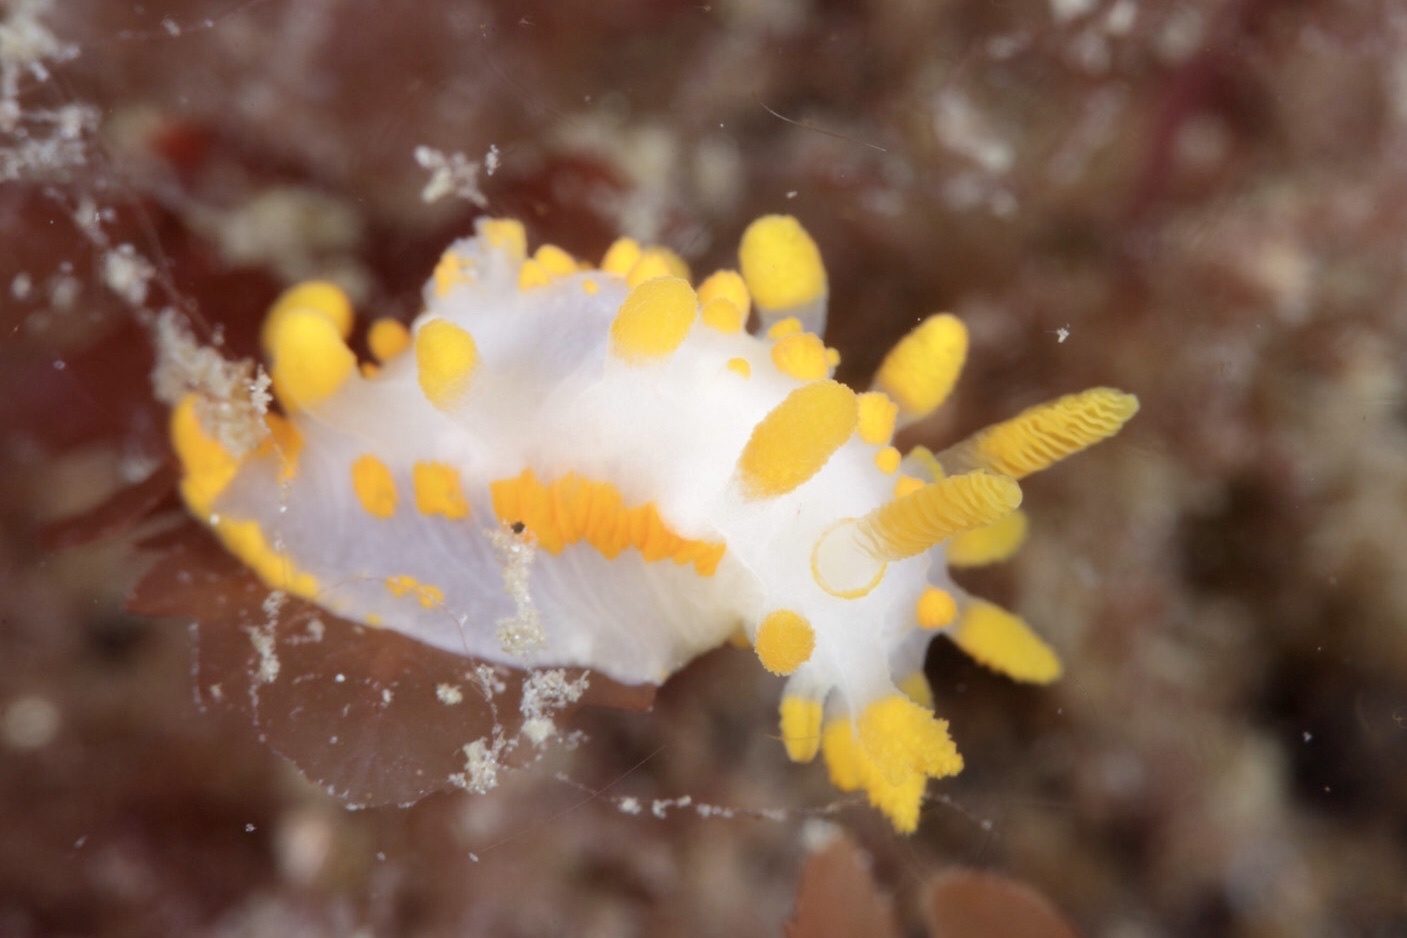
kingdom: Animalia
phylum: Mollusca
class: Gastropoda
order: Nudibranchia
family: Polyceridae
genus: Limacia
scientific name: Limacia clavigera
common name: Orange-clubbed sea slug
